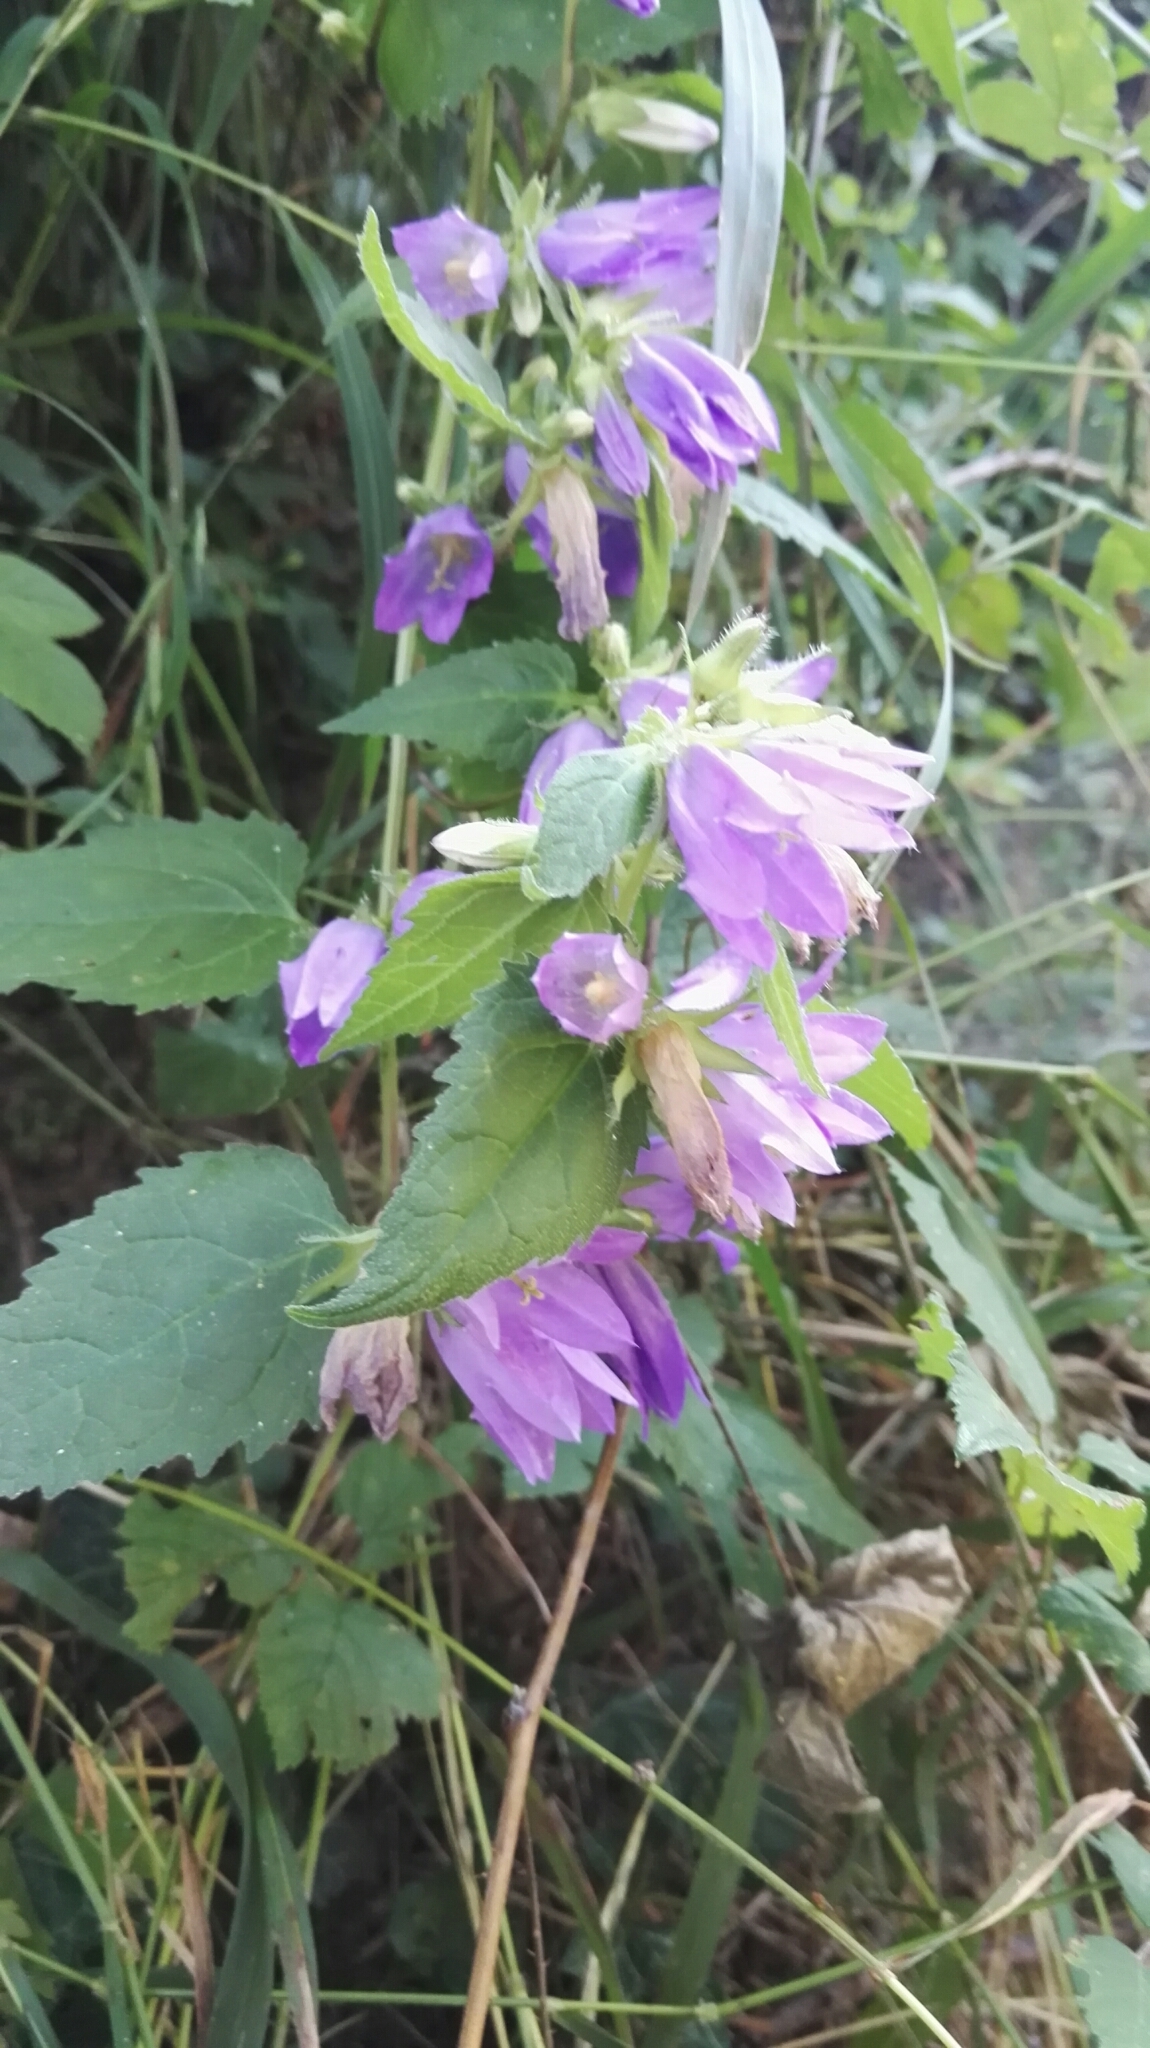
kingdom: Plantae
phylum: Tracheophyta
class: Magnoliopsida
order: Asterales
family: Campanulaceae
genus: Campanula
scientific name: Campanula trachelium
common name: Nettle-leaved bellflower
